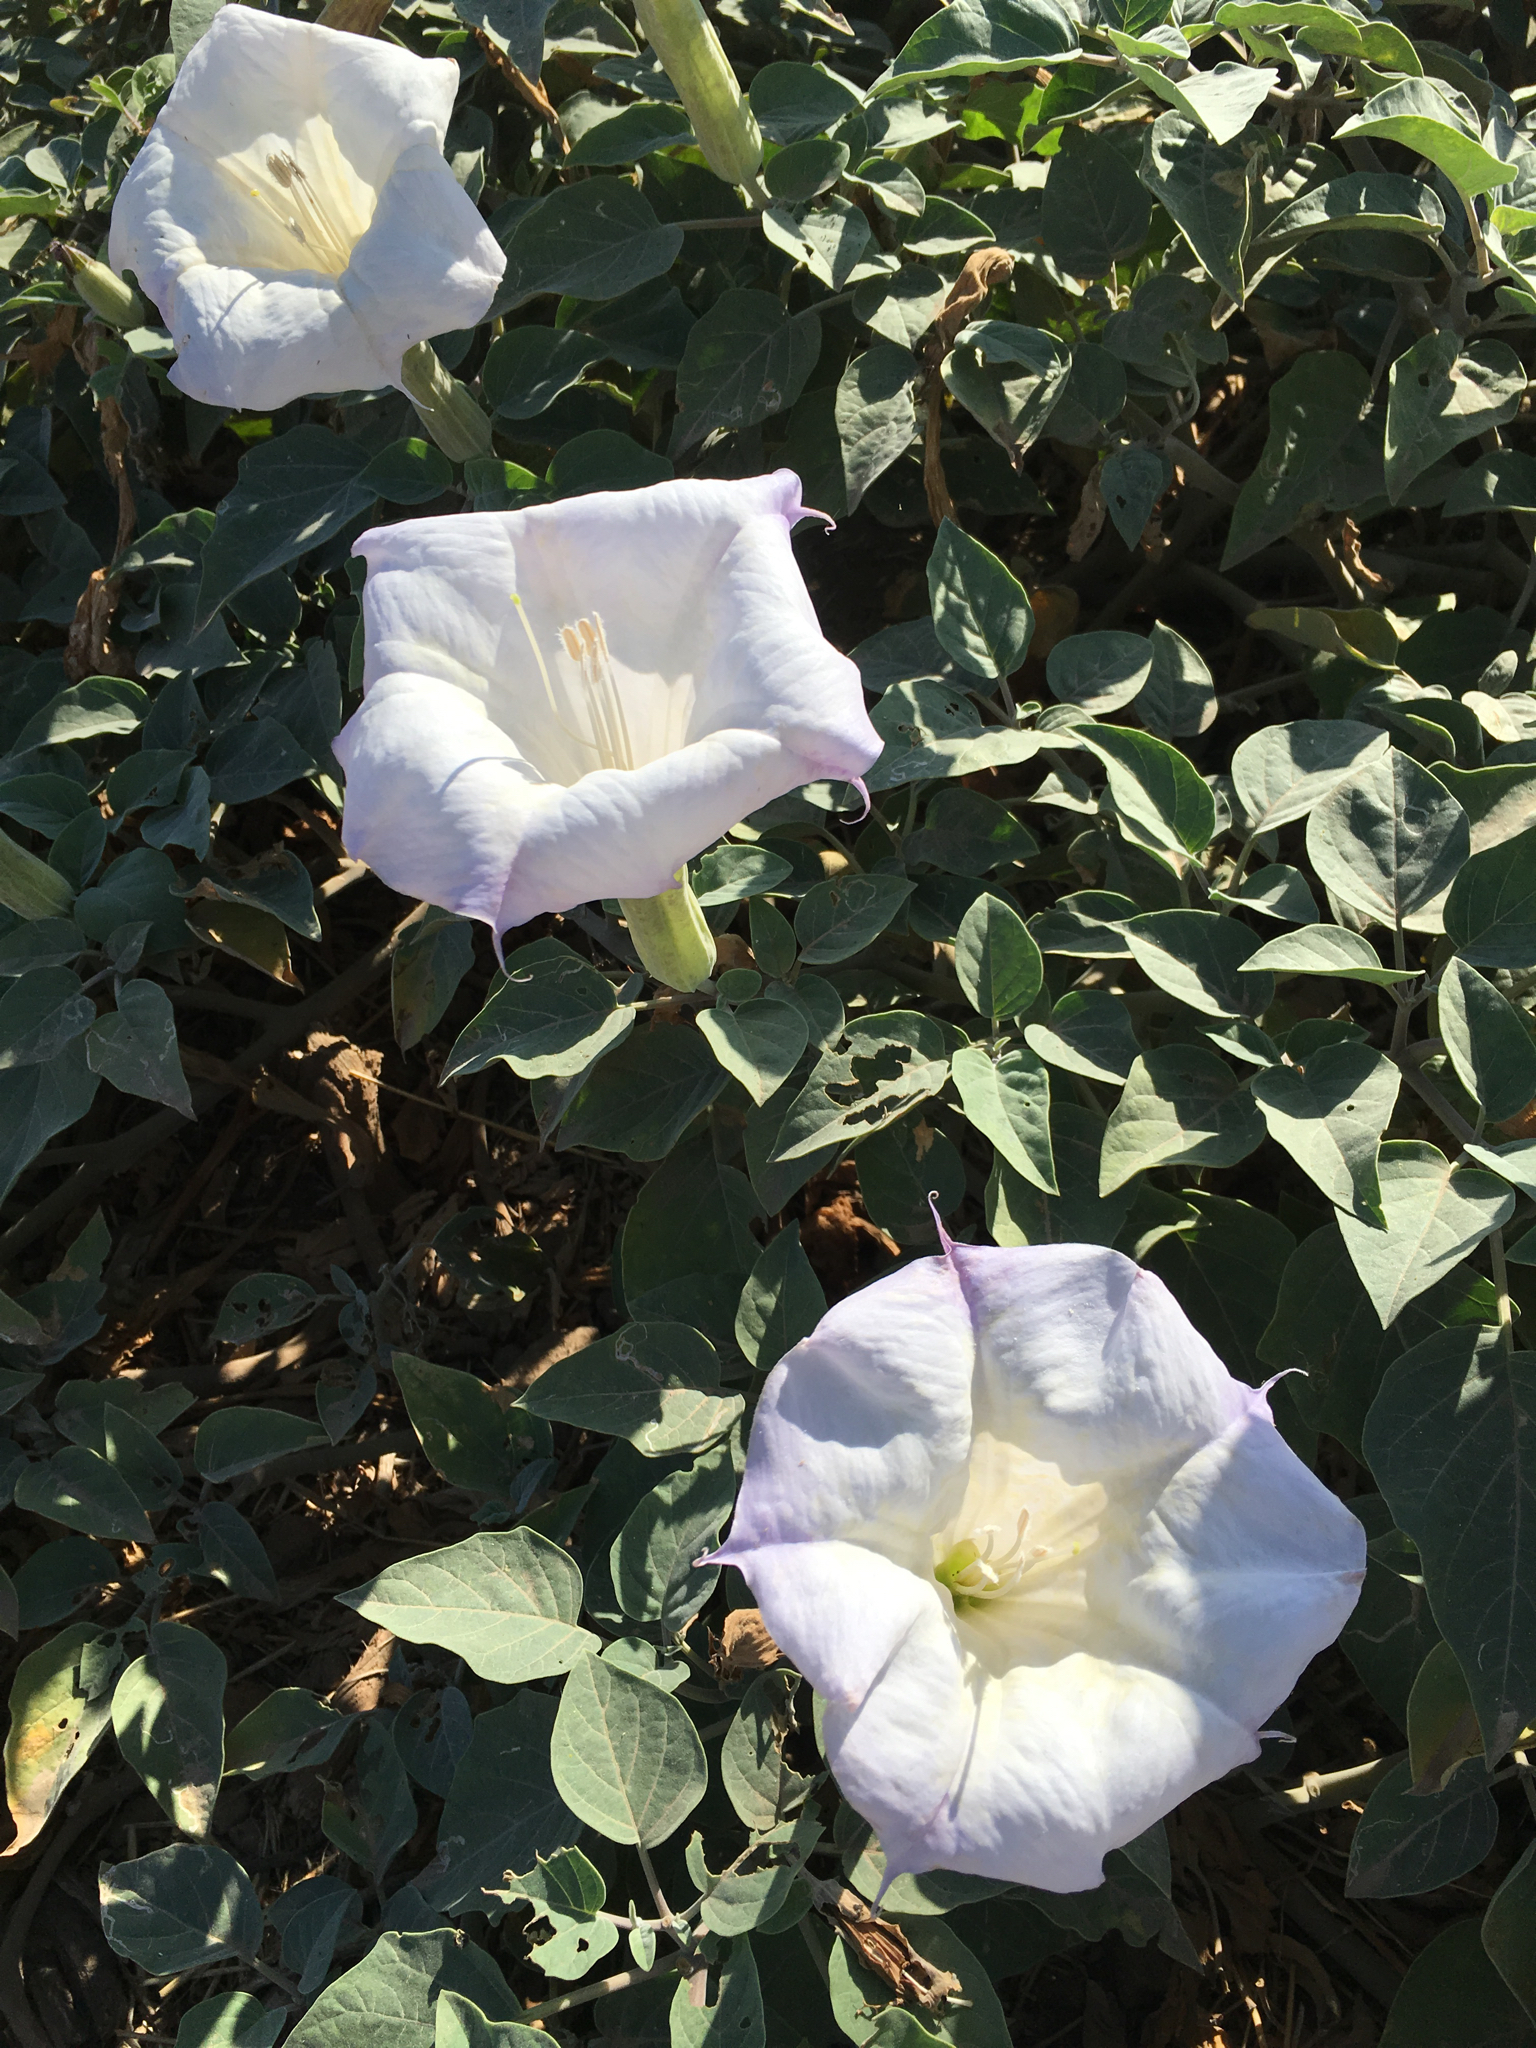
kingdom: Plantae
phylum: Tracheophyta
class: Magnoliopsida
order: Solanales
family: Solanaceae
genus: Datura
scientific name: Datura wrightii
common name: Sacred thorn-apple
